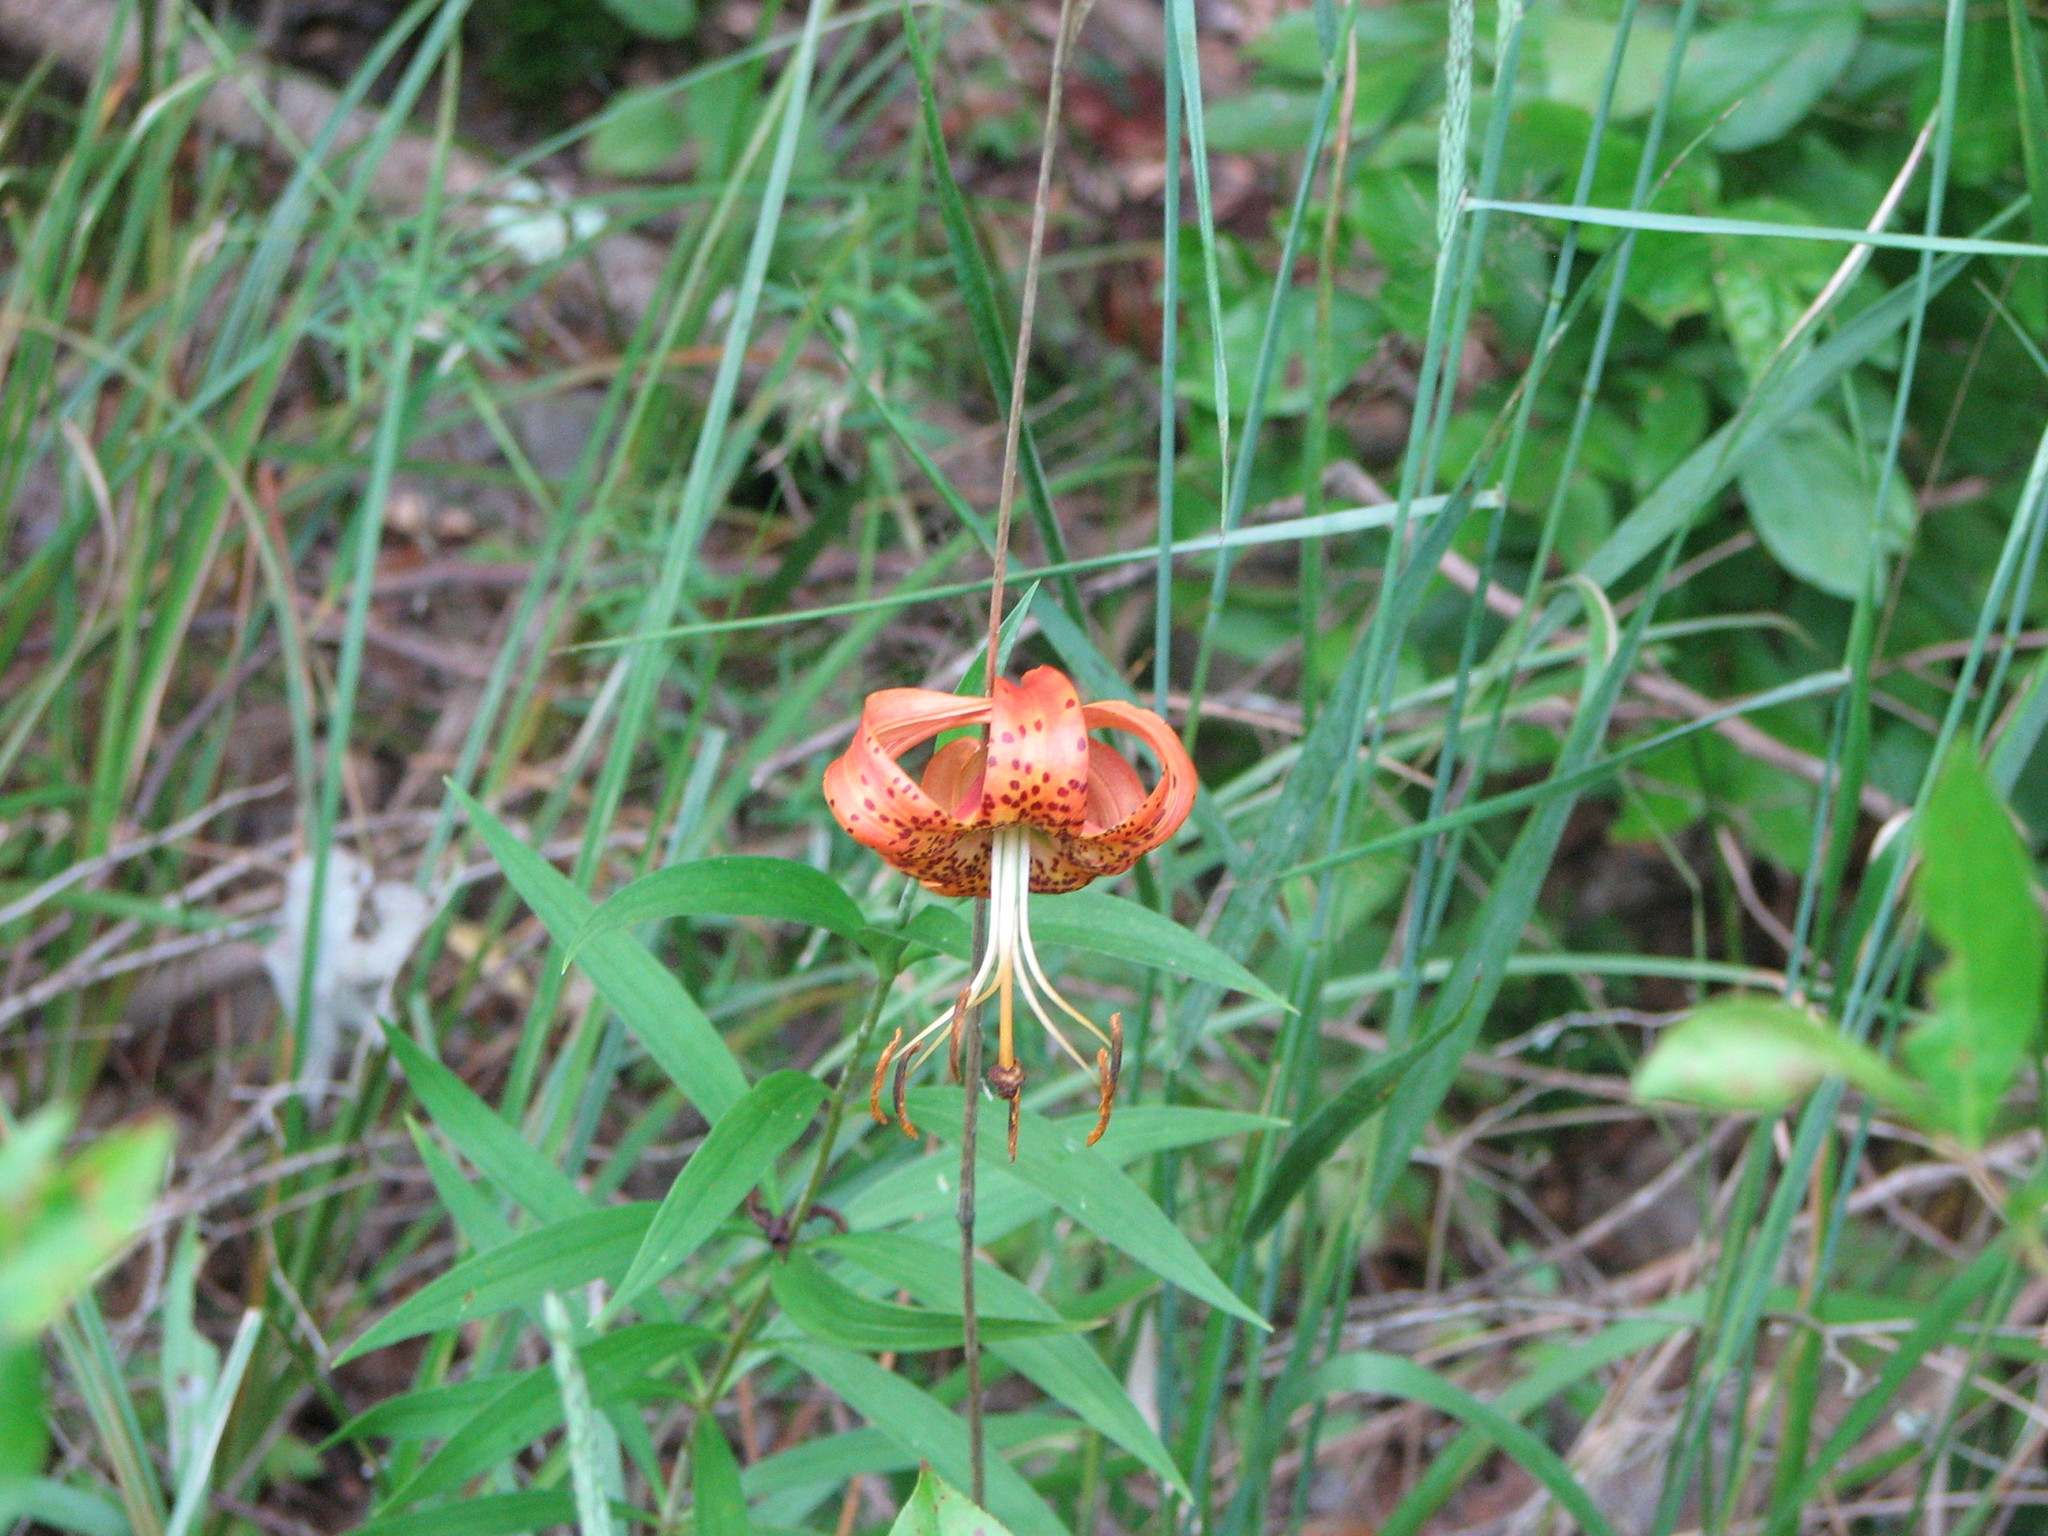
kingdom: Plantae
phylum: Tracheophyta
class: Liliopsida
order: Liliales
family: Liliaceae
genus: Lilium
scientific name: Lilium superbum
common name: American turk's-cap lily
